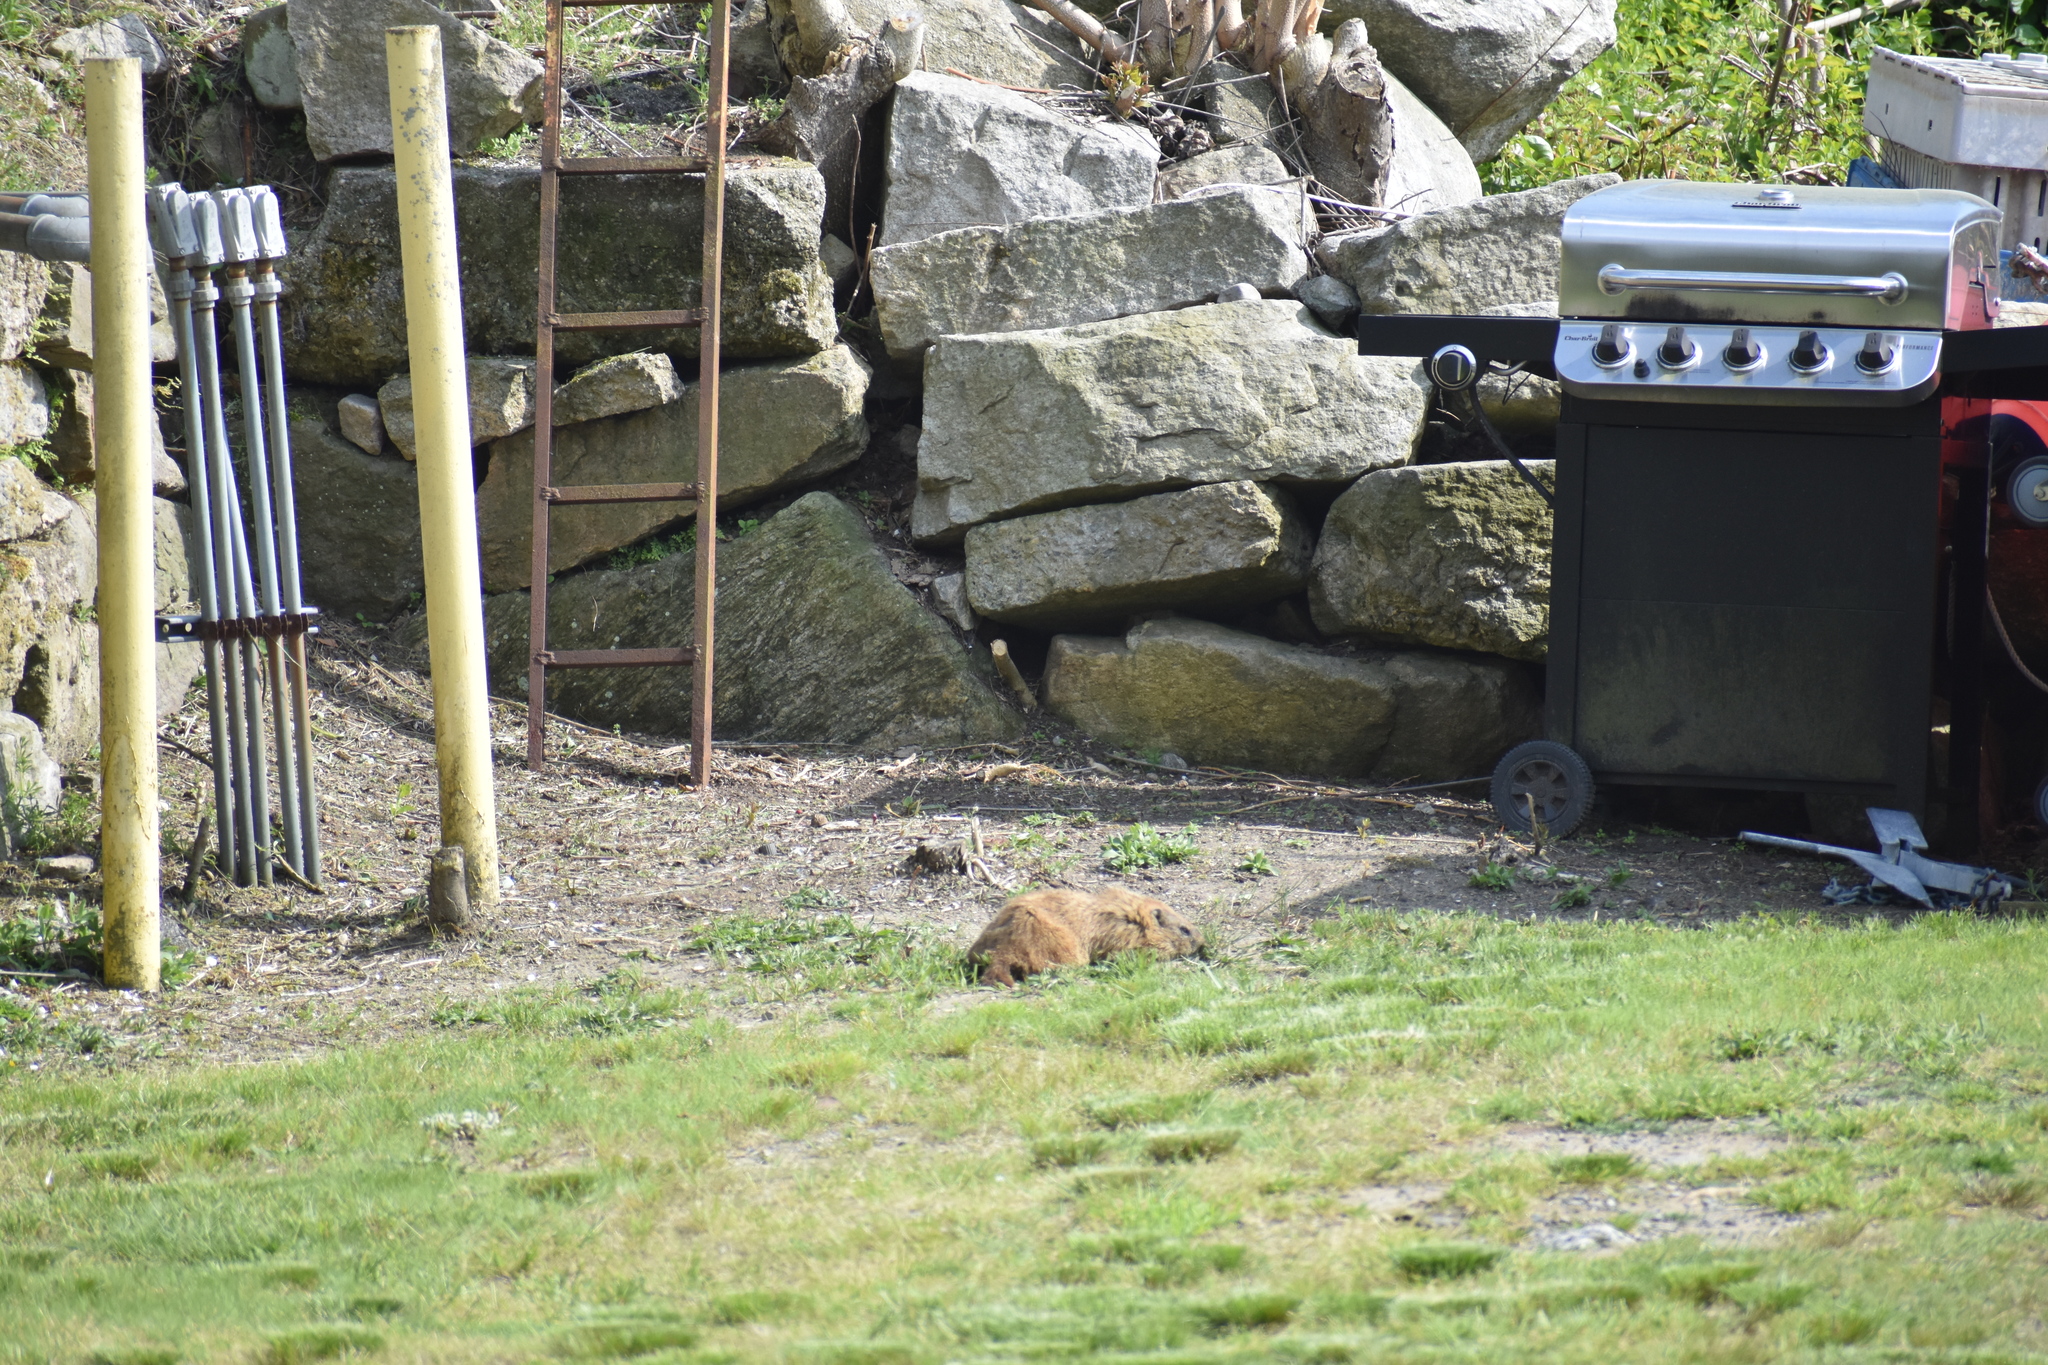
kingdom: Animalia
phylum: Chordata
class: Mammalia
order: Rodentia
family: Sciuridae
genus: Marmota
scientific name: Marmota monax
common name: Groundhog
